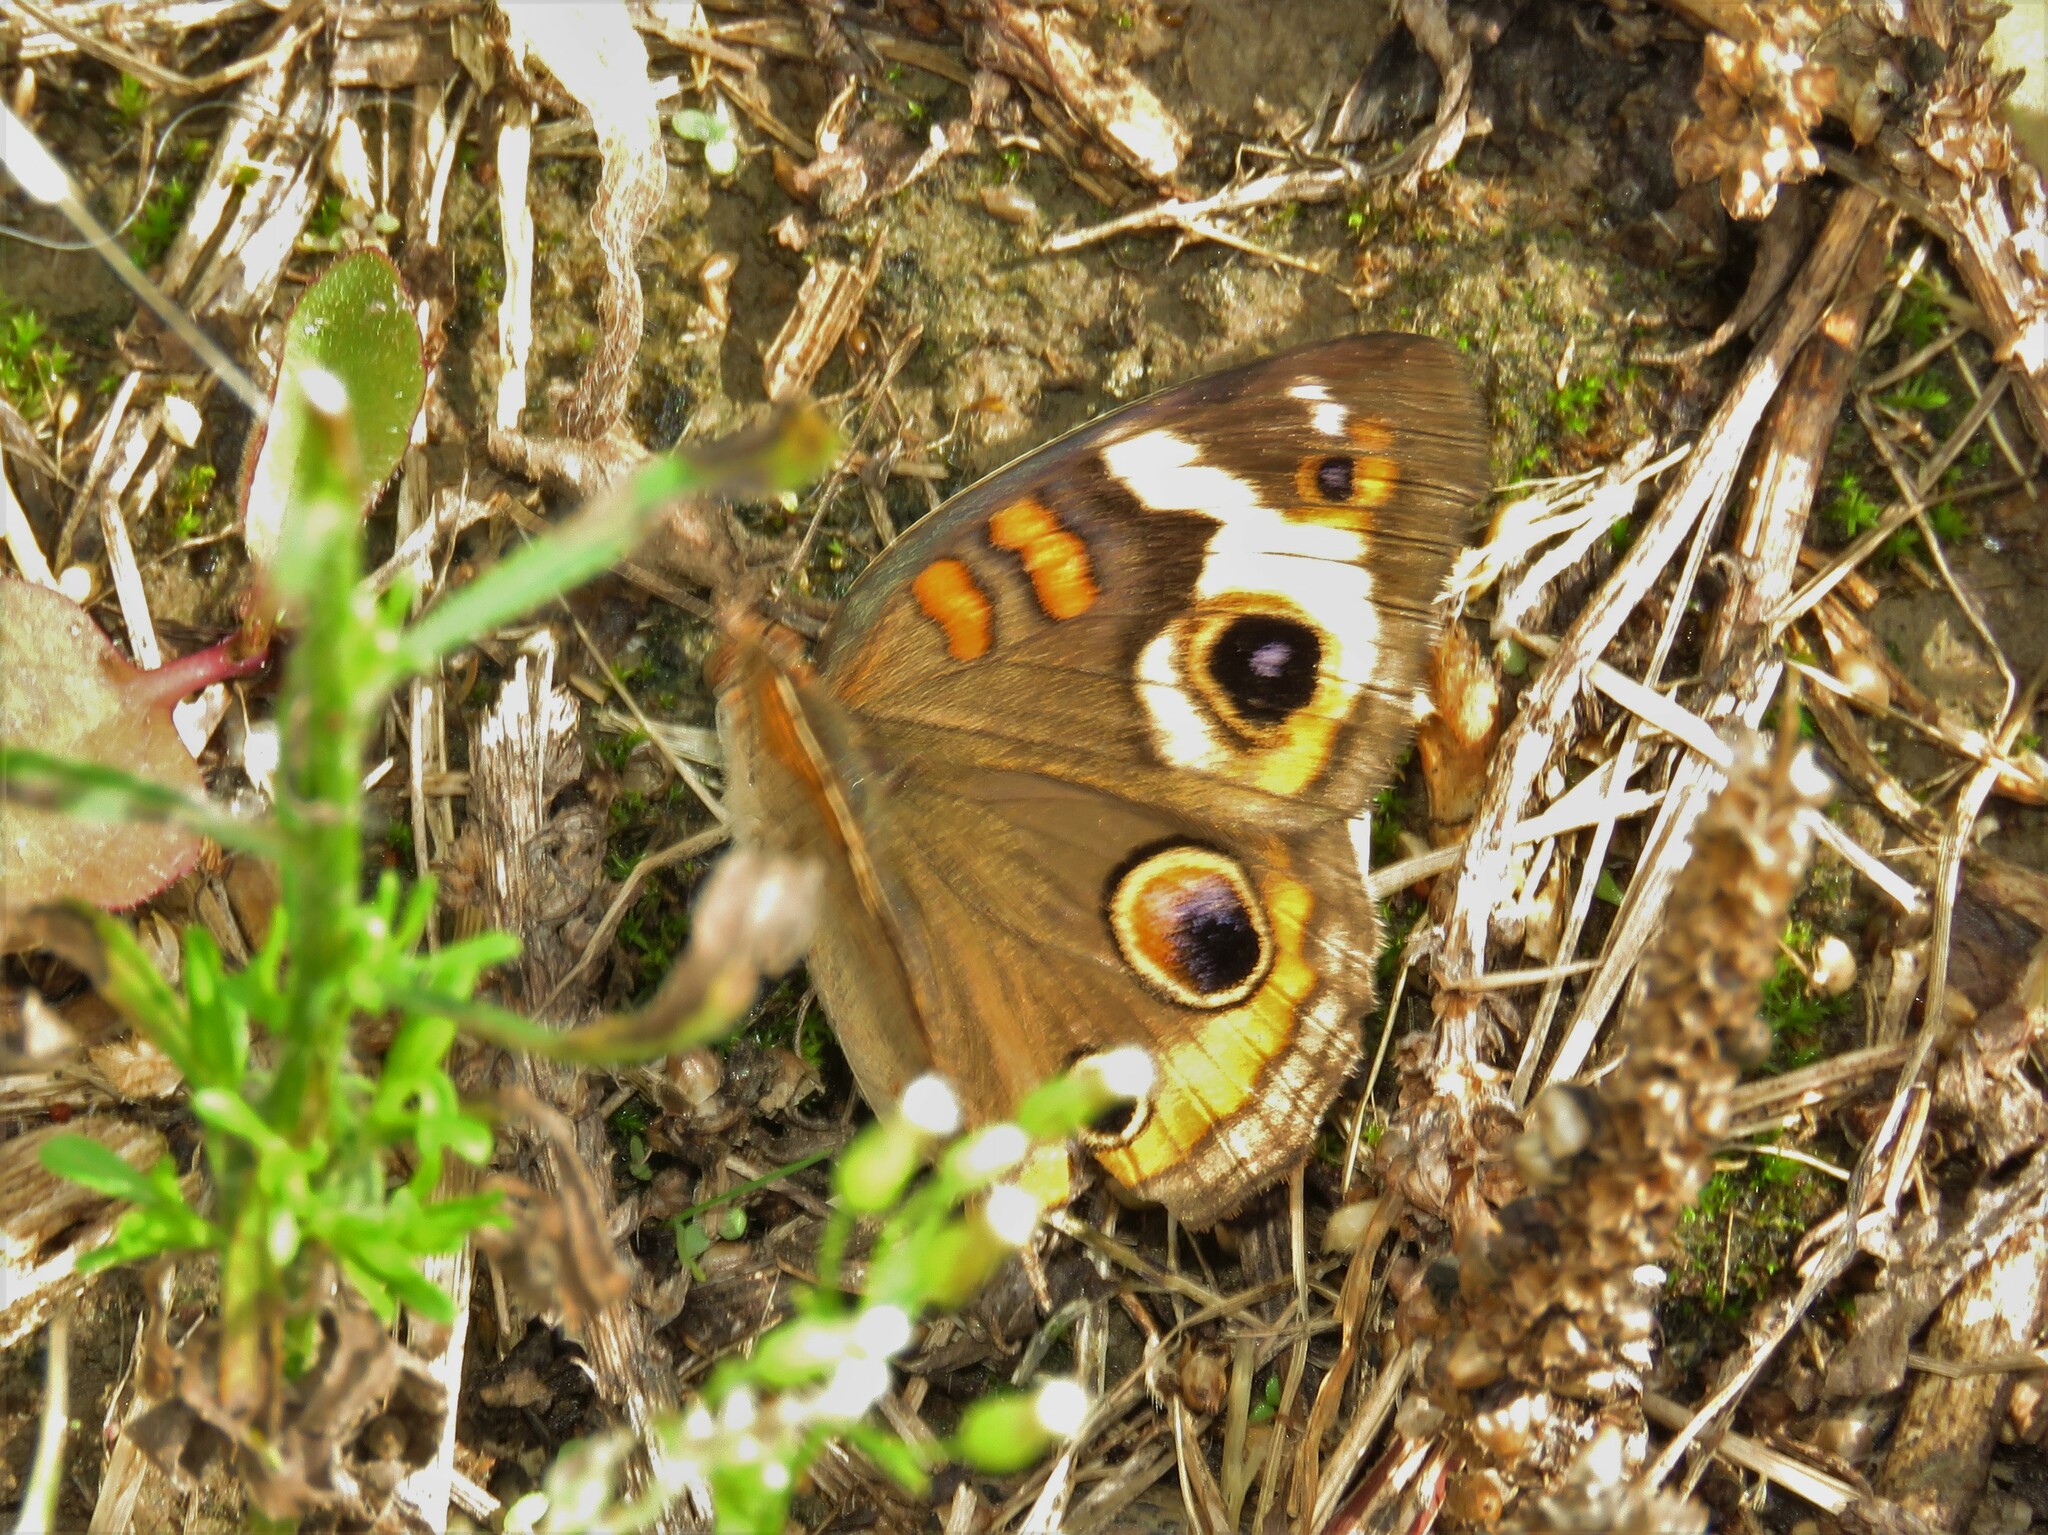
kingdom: Animalia
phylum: Arthropoda
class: Insecta
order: Lepidoptera
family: Nymphalidae
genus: Junonia
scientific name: Junonia coenia
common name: Common buckeye
